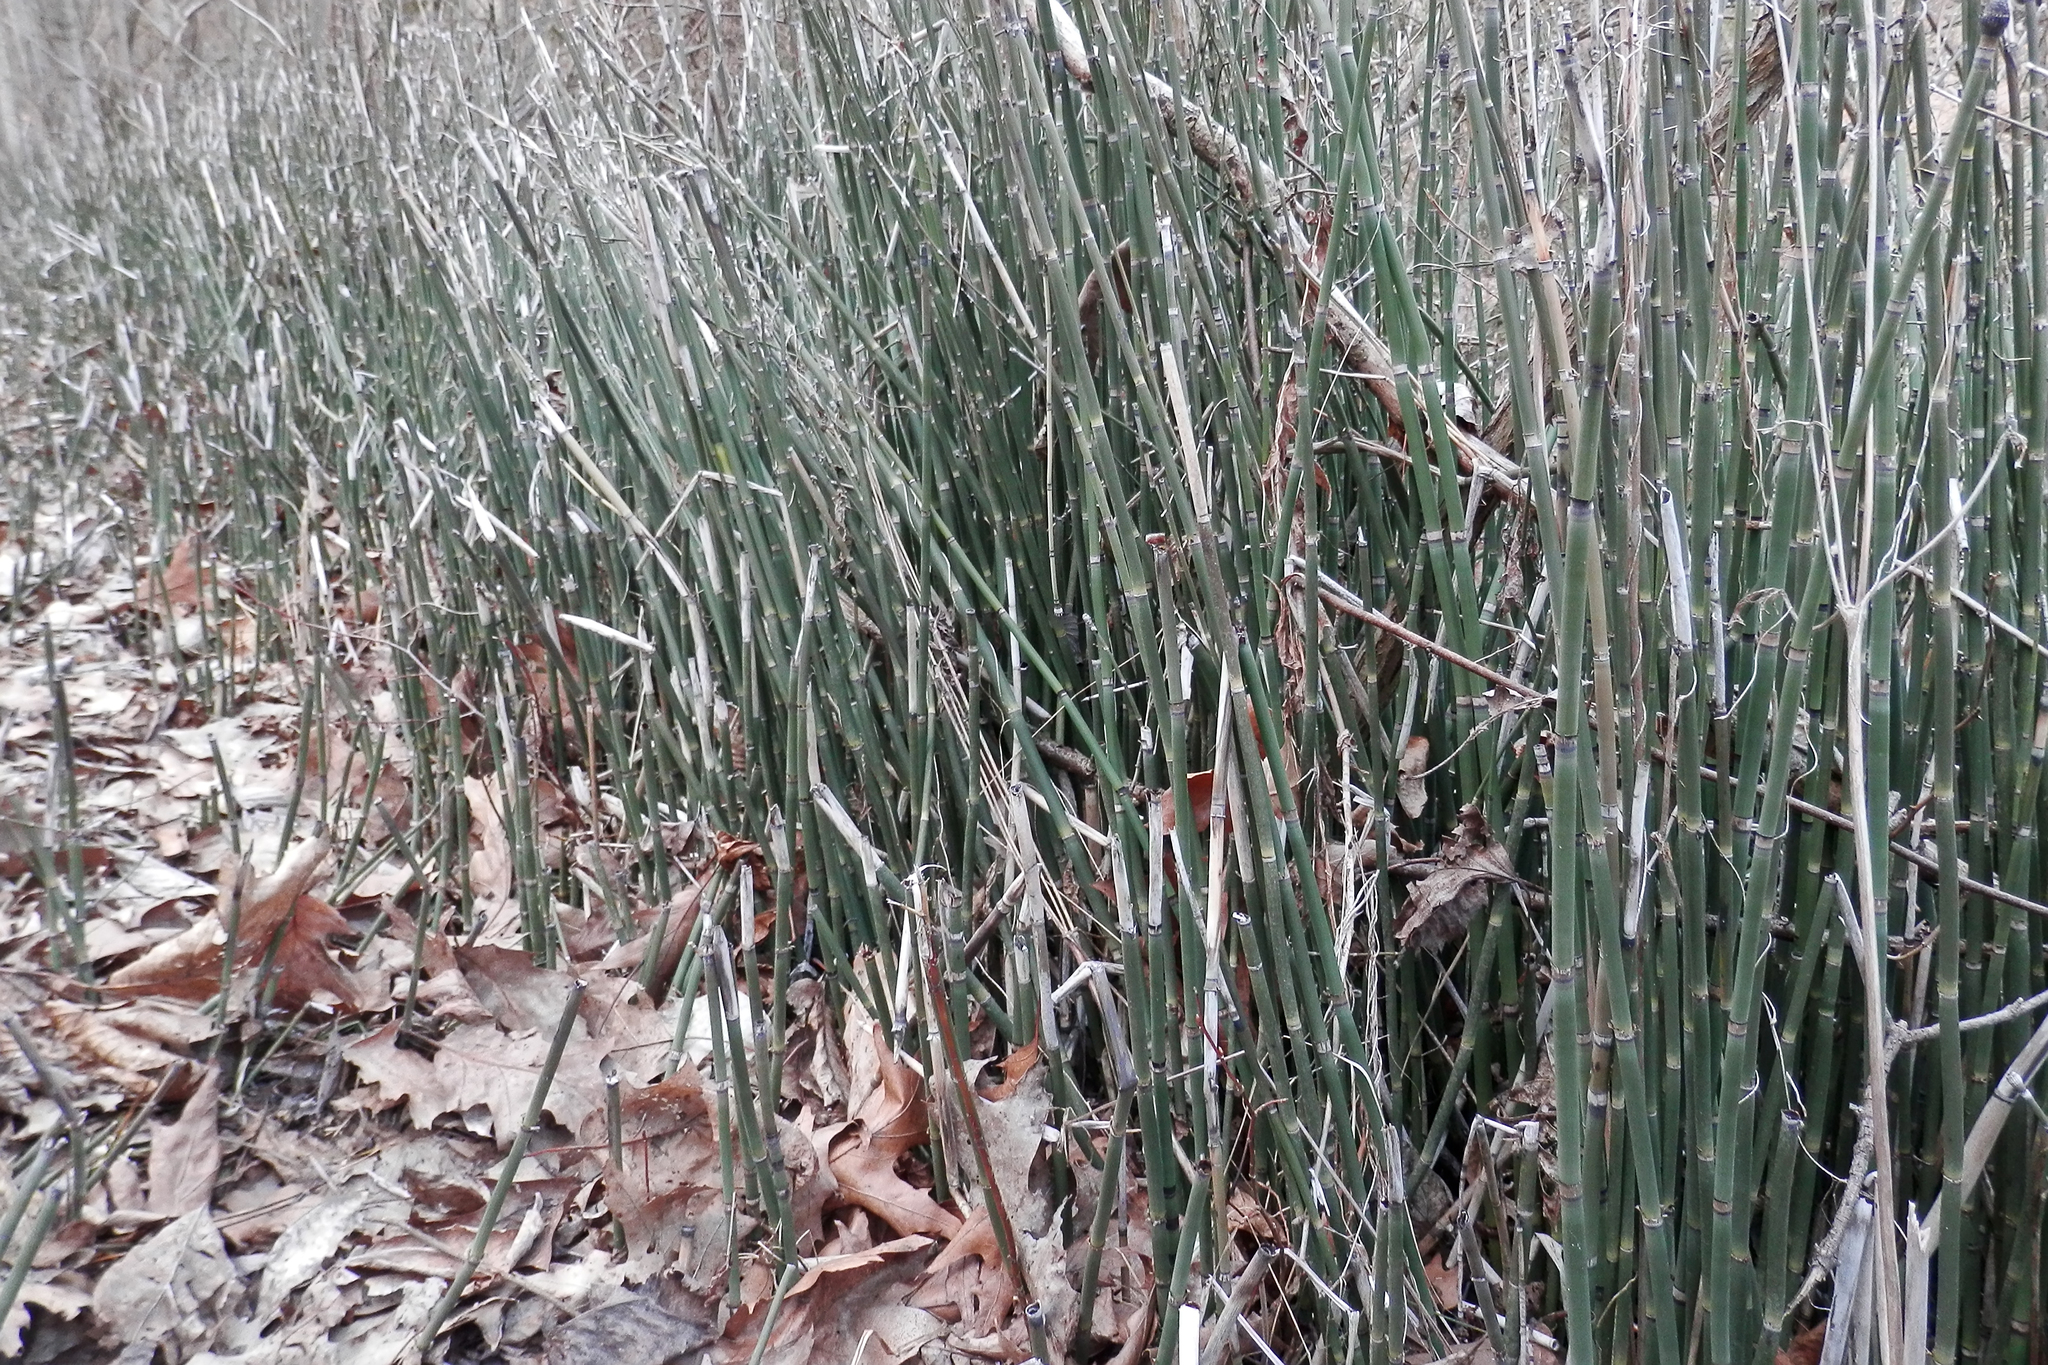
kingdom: Plantae
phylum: Tracheophyta
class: Polypodiopsida
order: Equisetales
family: Equisetaceae
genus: Equisetum
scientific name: Equisetum hyemale
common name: Rough horsetail
